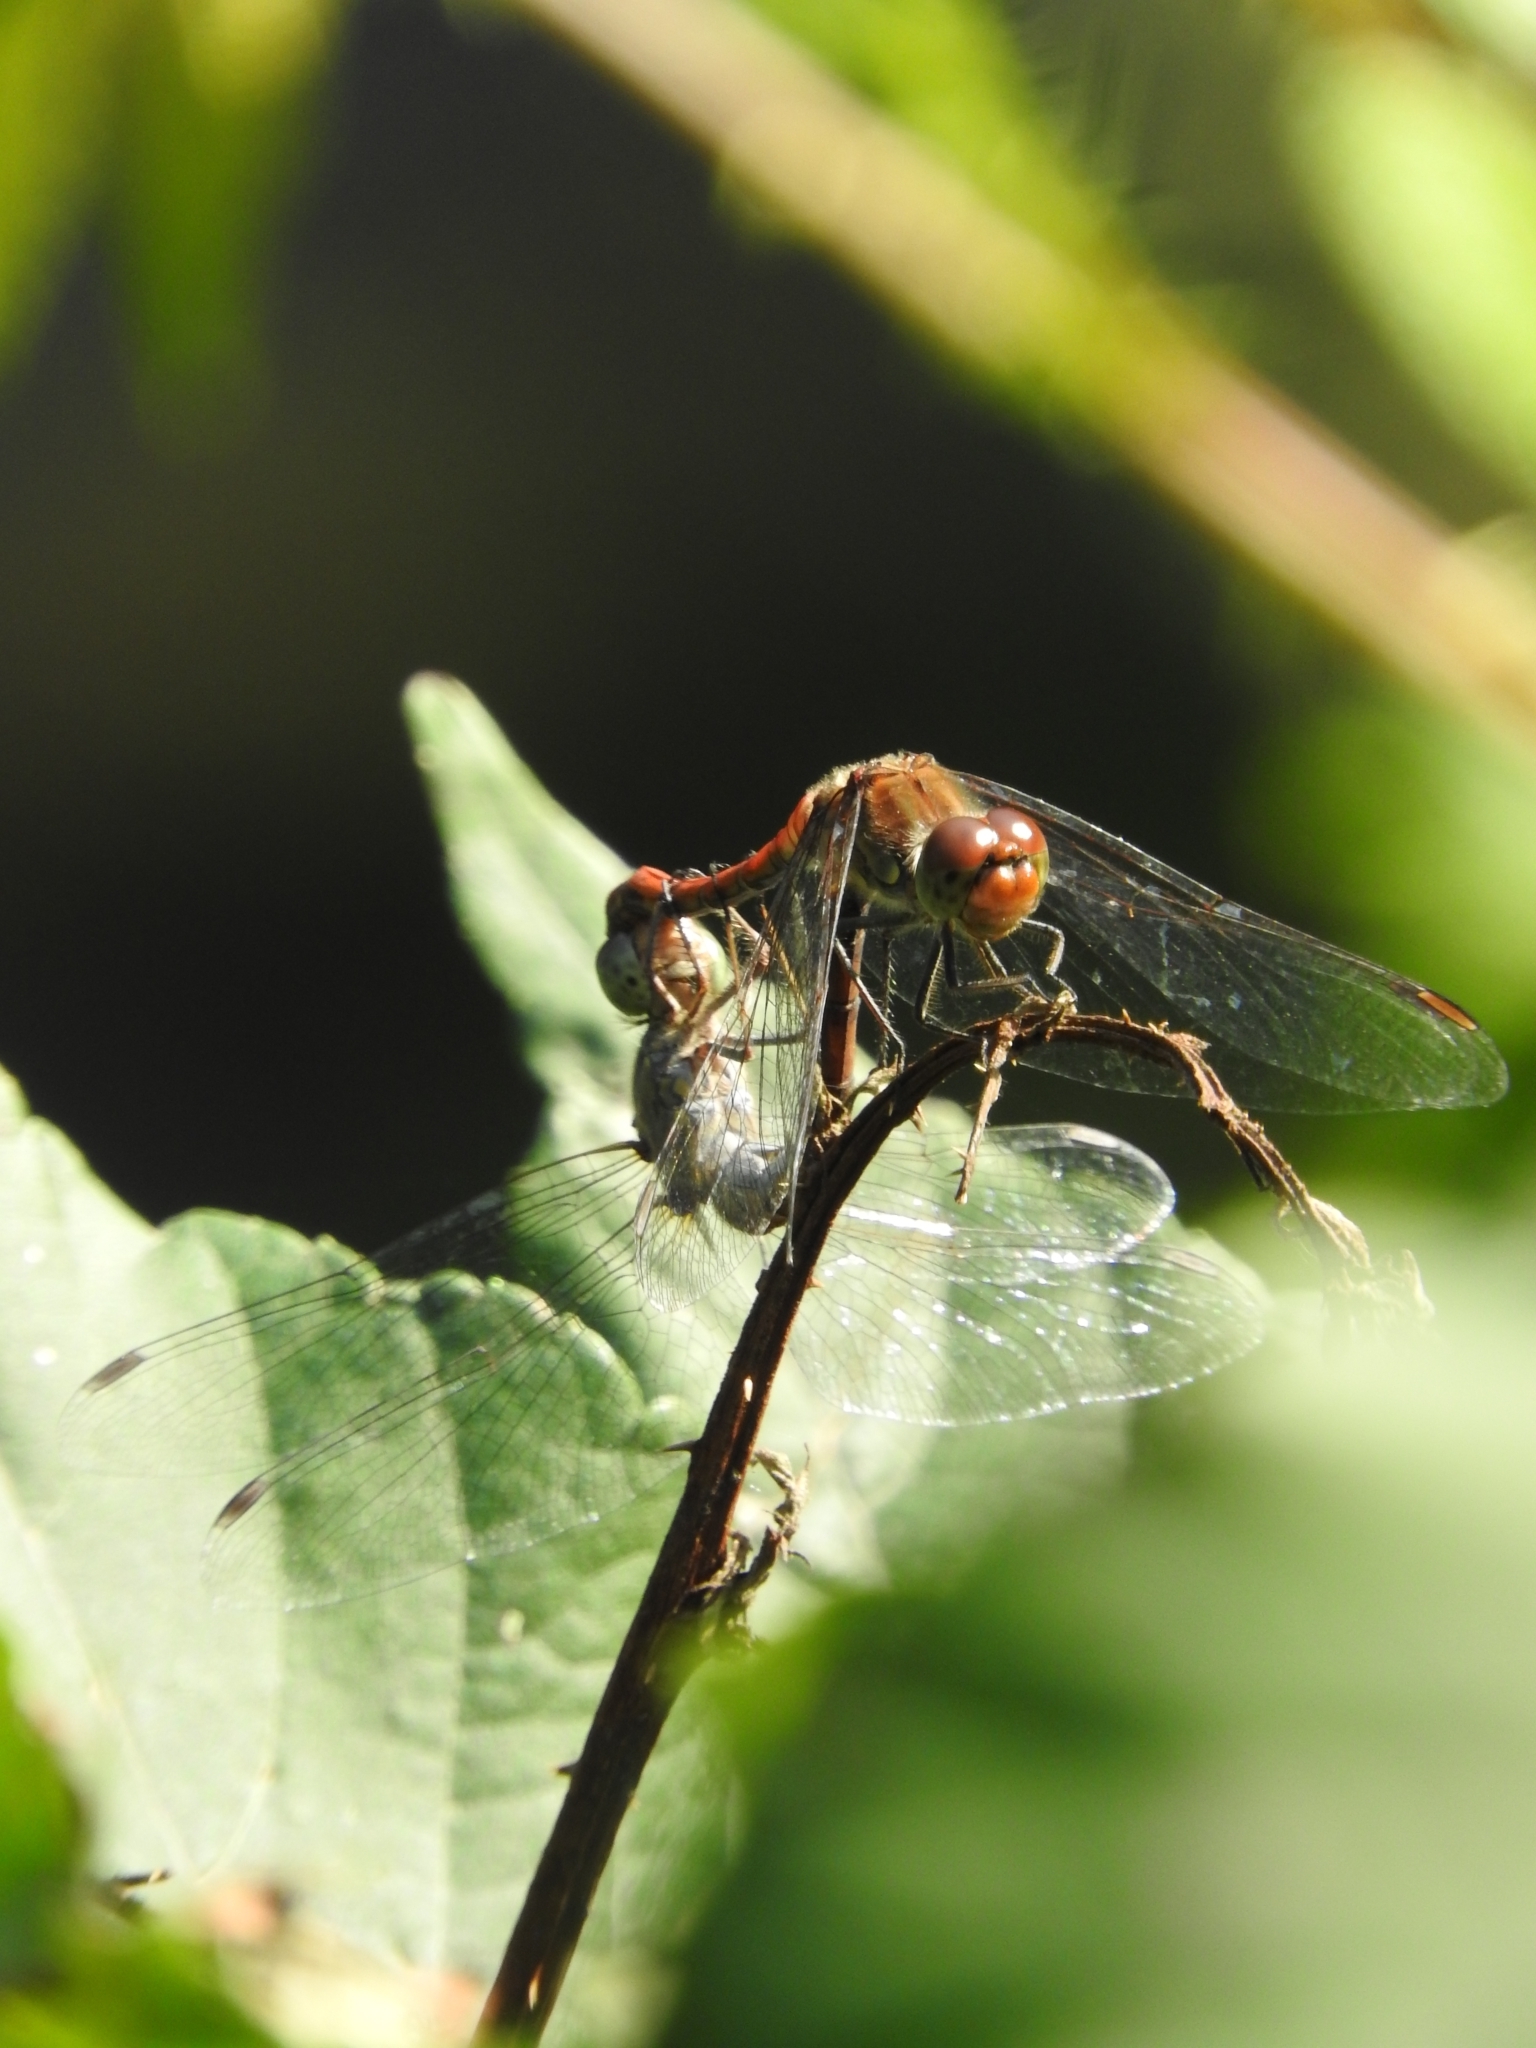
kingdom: Animalia
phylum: Arthropoda
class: Insecta
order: Odonata
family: Libellulidae
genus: Sympetrum
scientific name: Sympetrum striolatum
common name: Common darter
